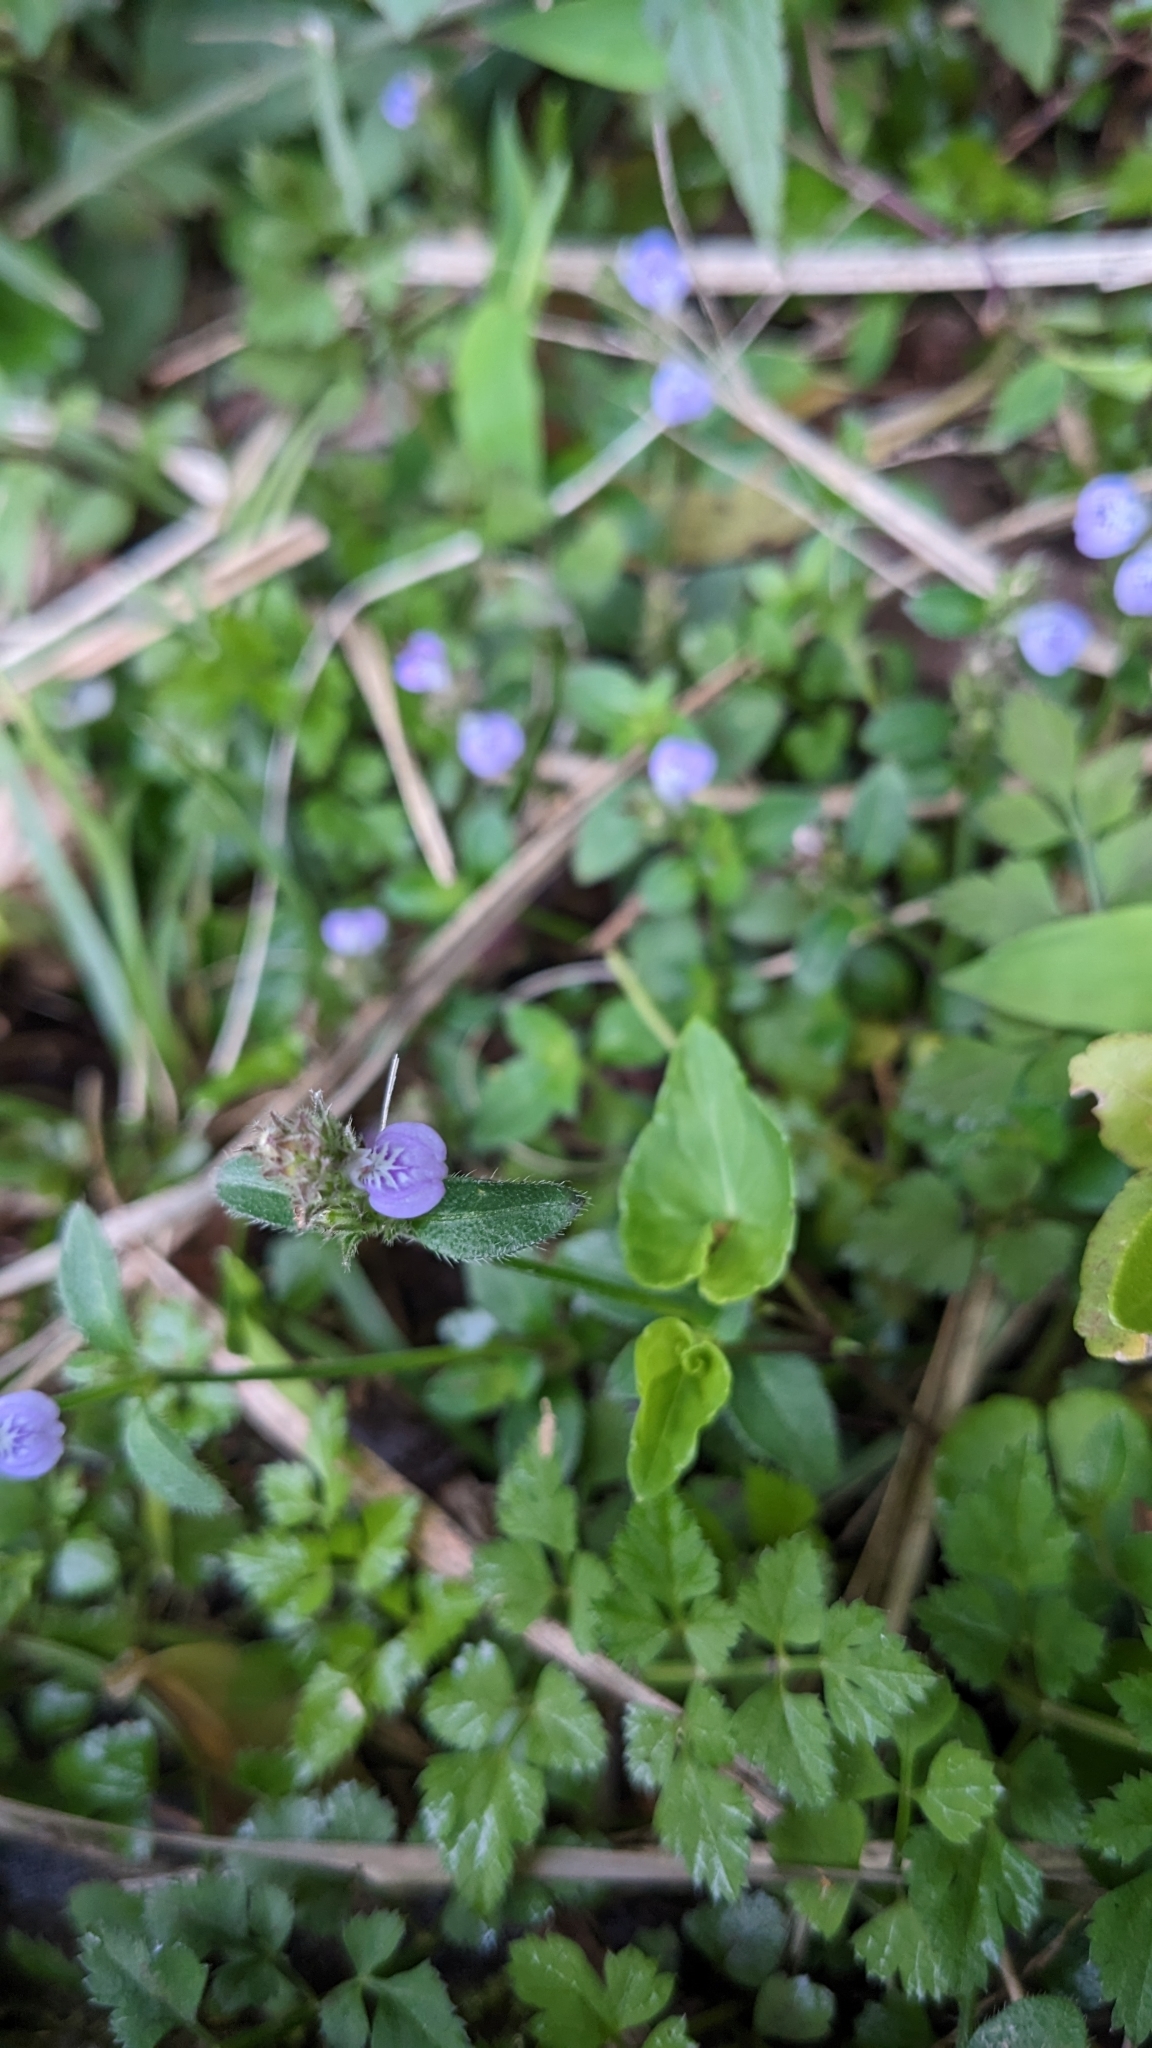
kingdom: Plantae
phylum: Tracheophyta
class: Magnoliopsida
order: Lamiales
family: Acanthaceae
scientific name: Acanthaceae
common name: Acanthaceae
